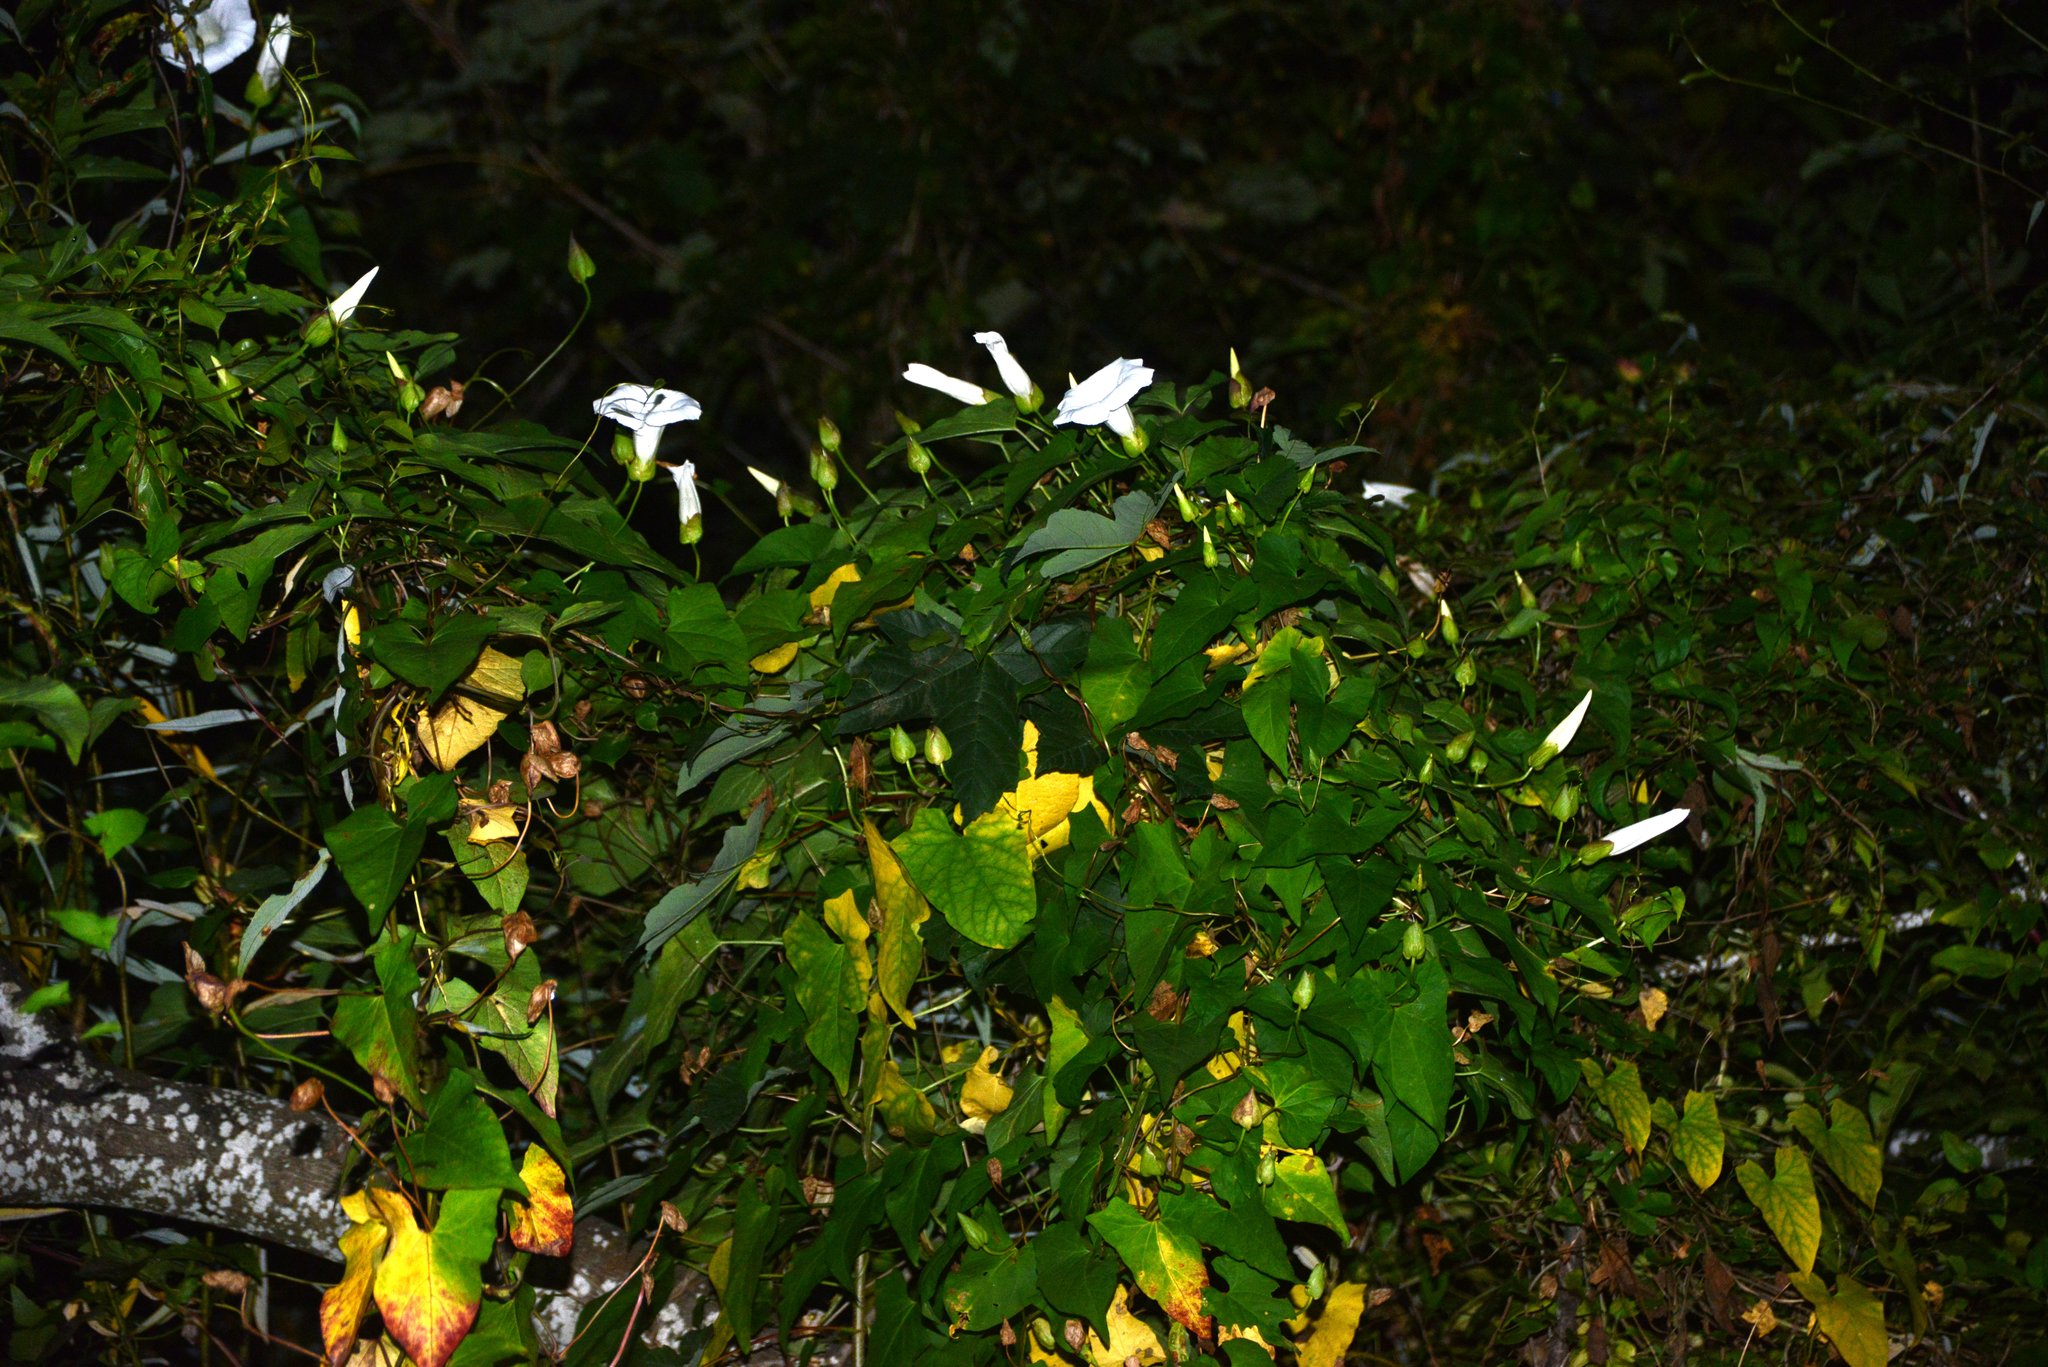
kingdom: Plantae
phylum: Tracheophyta
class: Magnoliopsida
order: Solanales
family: Convolvulaceae
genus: Calystegia
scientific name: Calystegia silvatica
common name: Large bindweed
